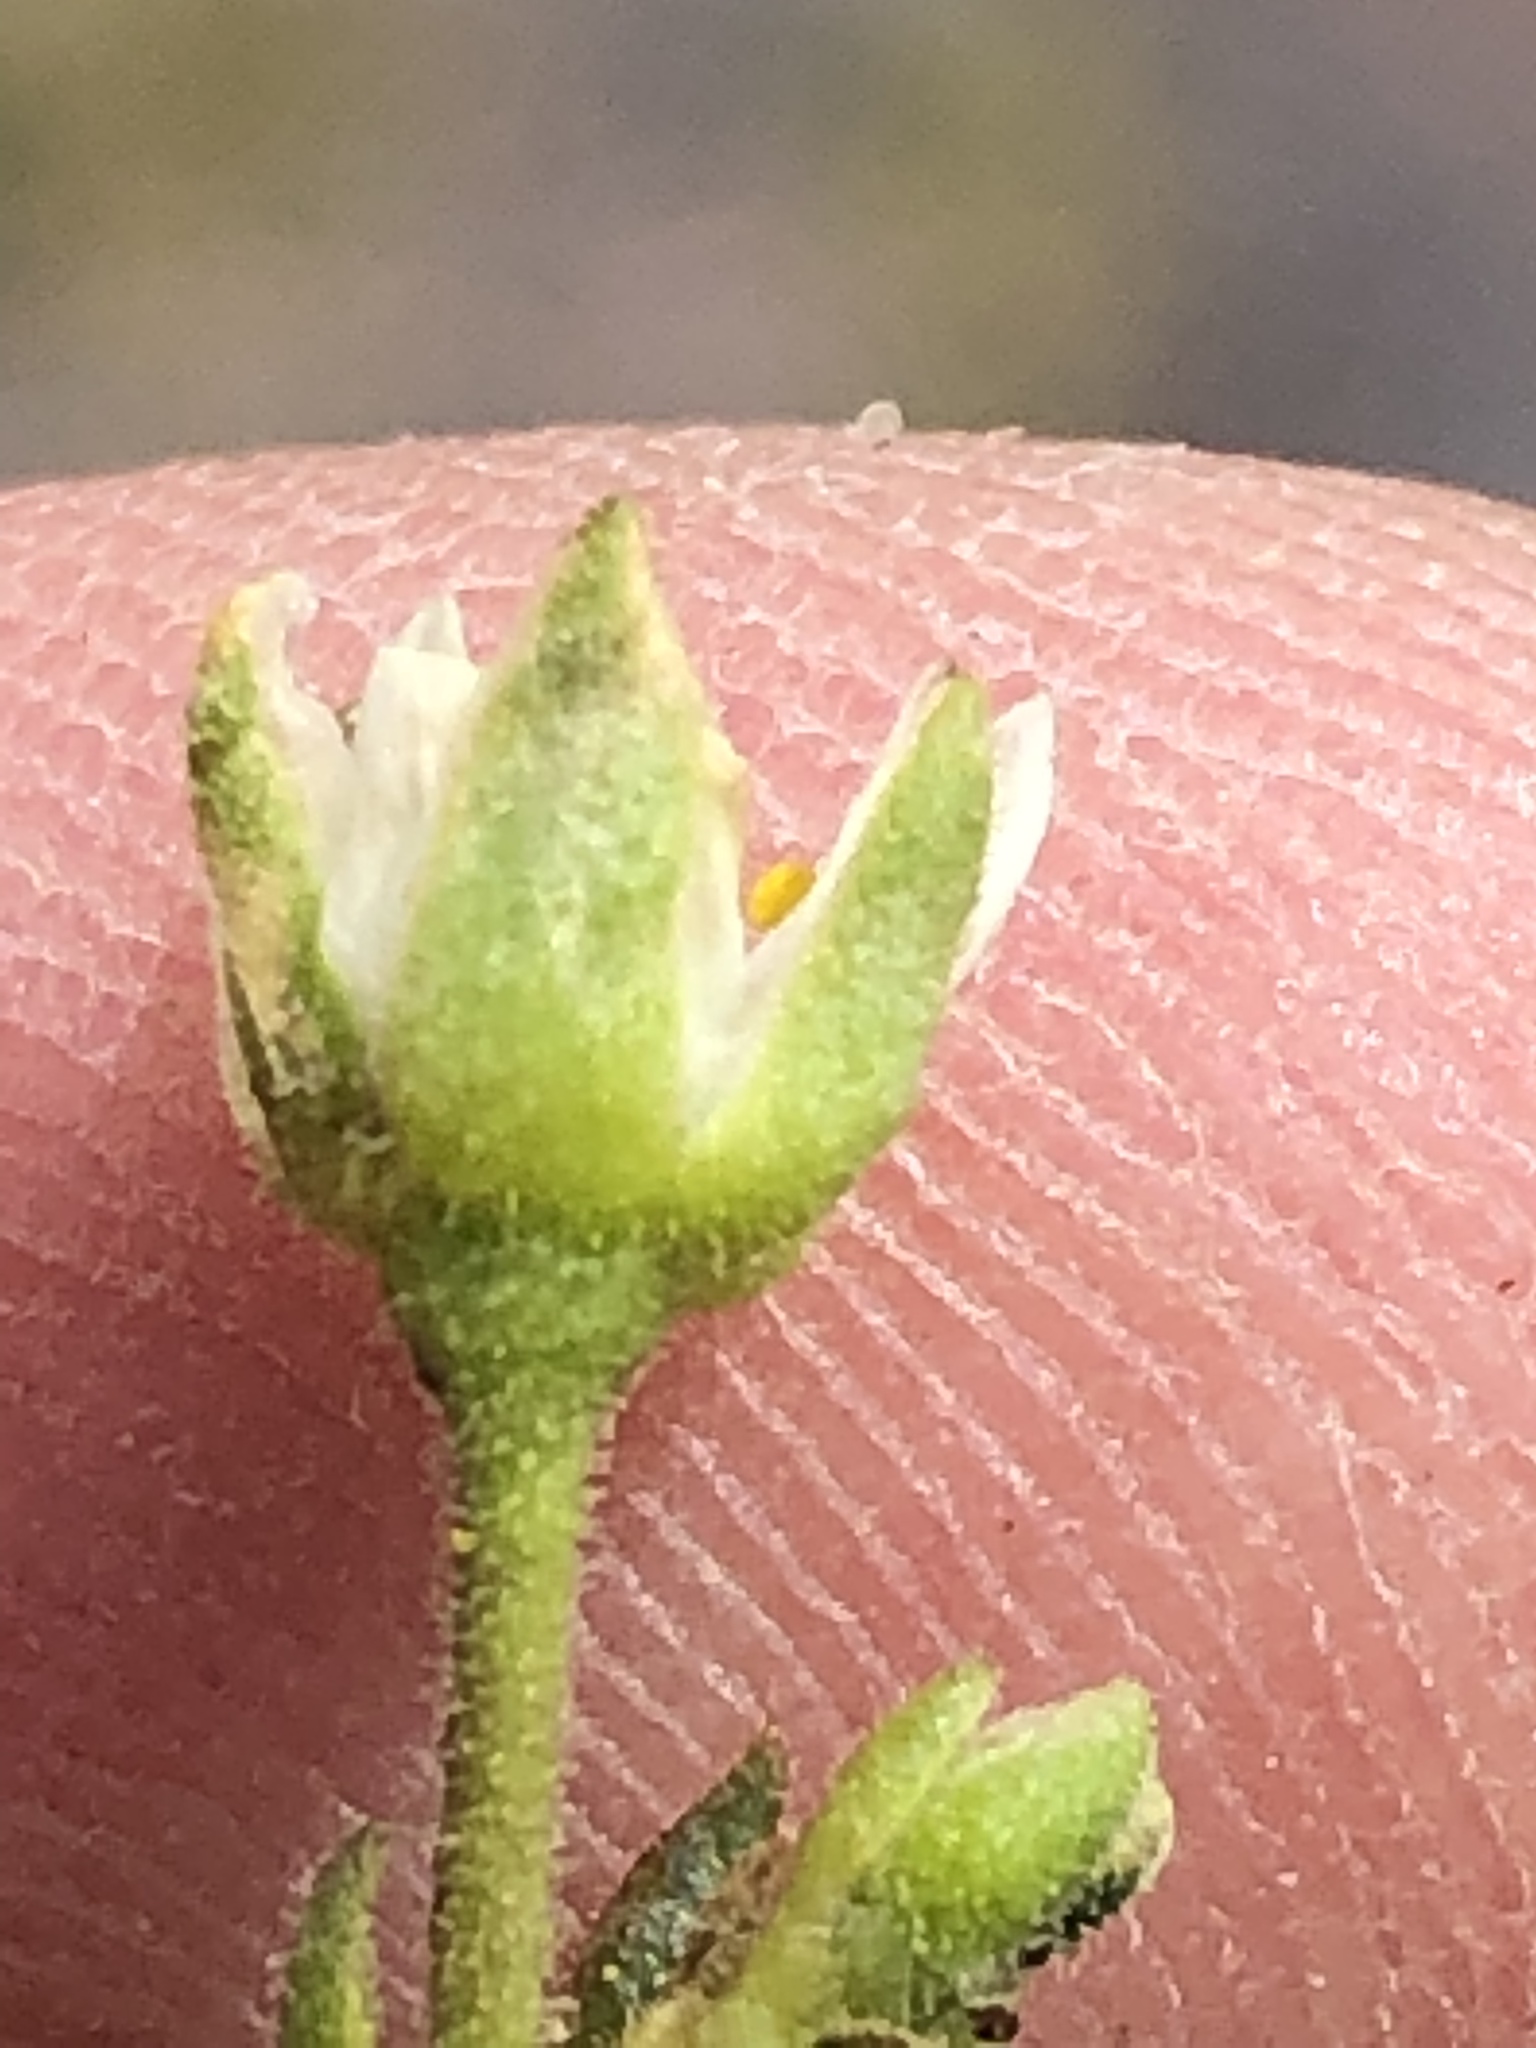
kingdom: Plantae
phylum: Tracheophyta
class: Magnoliopsida
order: Caryophyllales
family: Caryophyllaceae
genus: Spergularia
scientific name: Spergularia media
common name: Greater sea-spurrey
